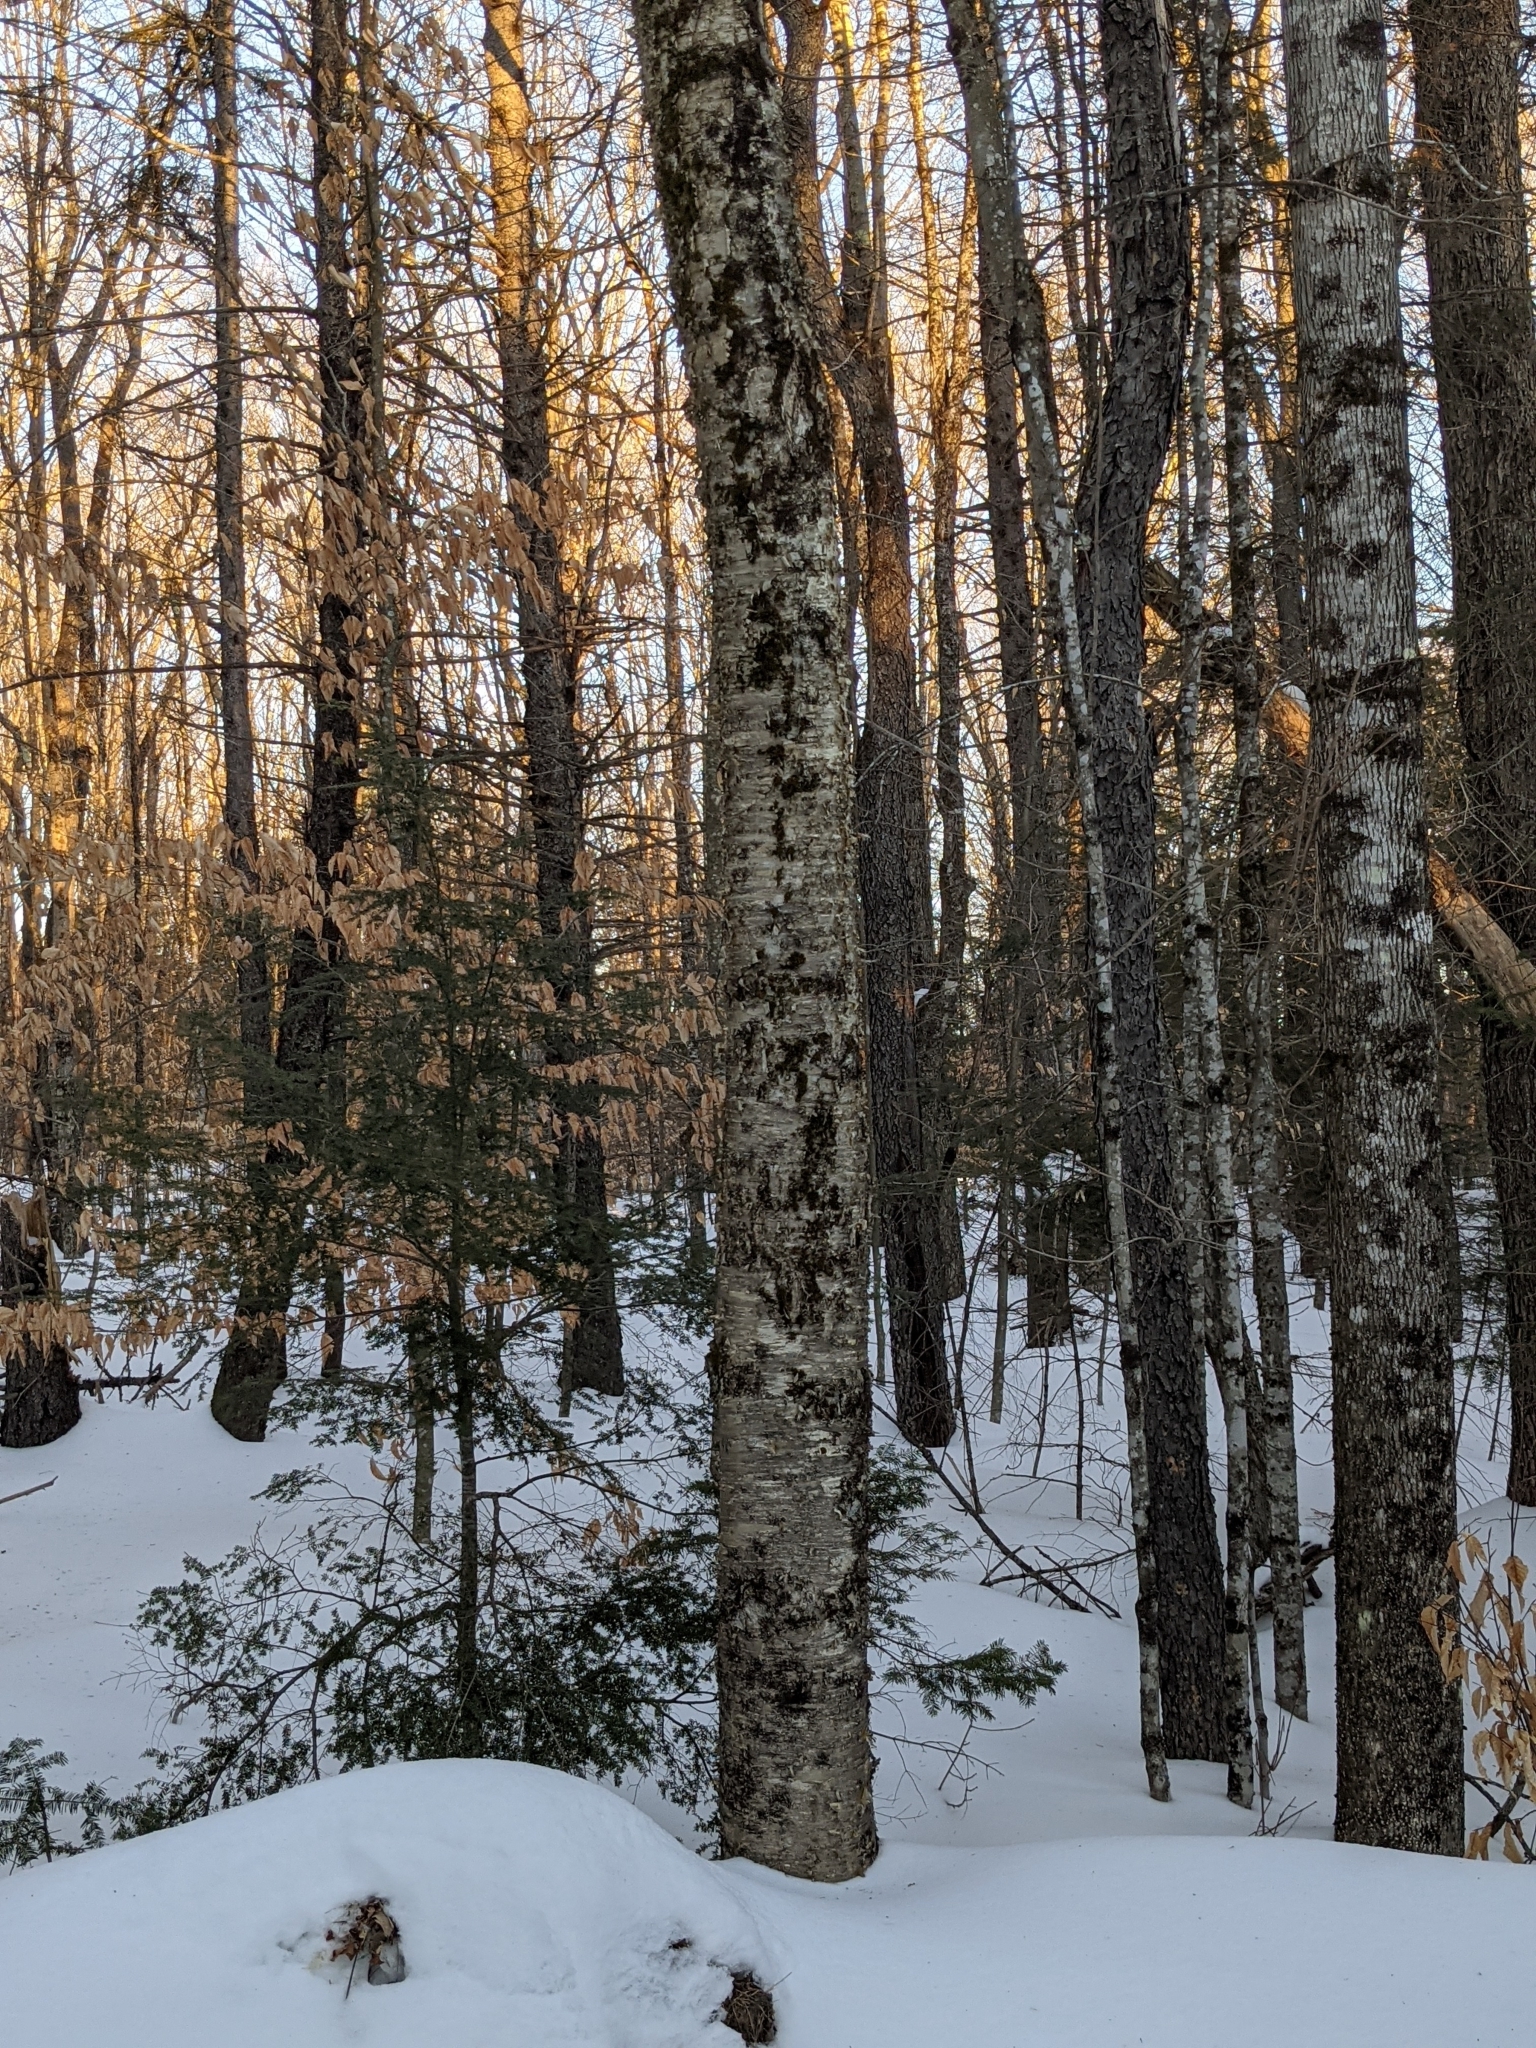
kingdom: Plantae
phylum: Tracheophyta
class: Magnoliopsida
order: Fagales
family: Betulaceae
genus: Betula
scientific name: Betula alleghaniensis
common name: Yellow birch
